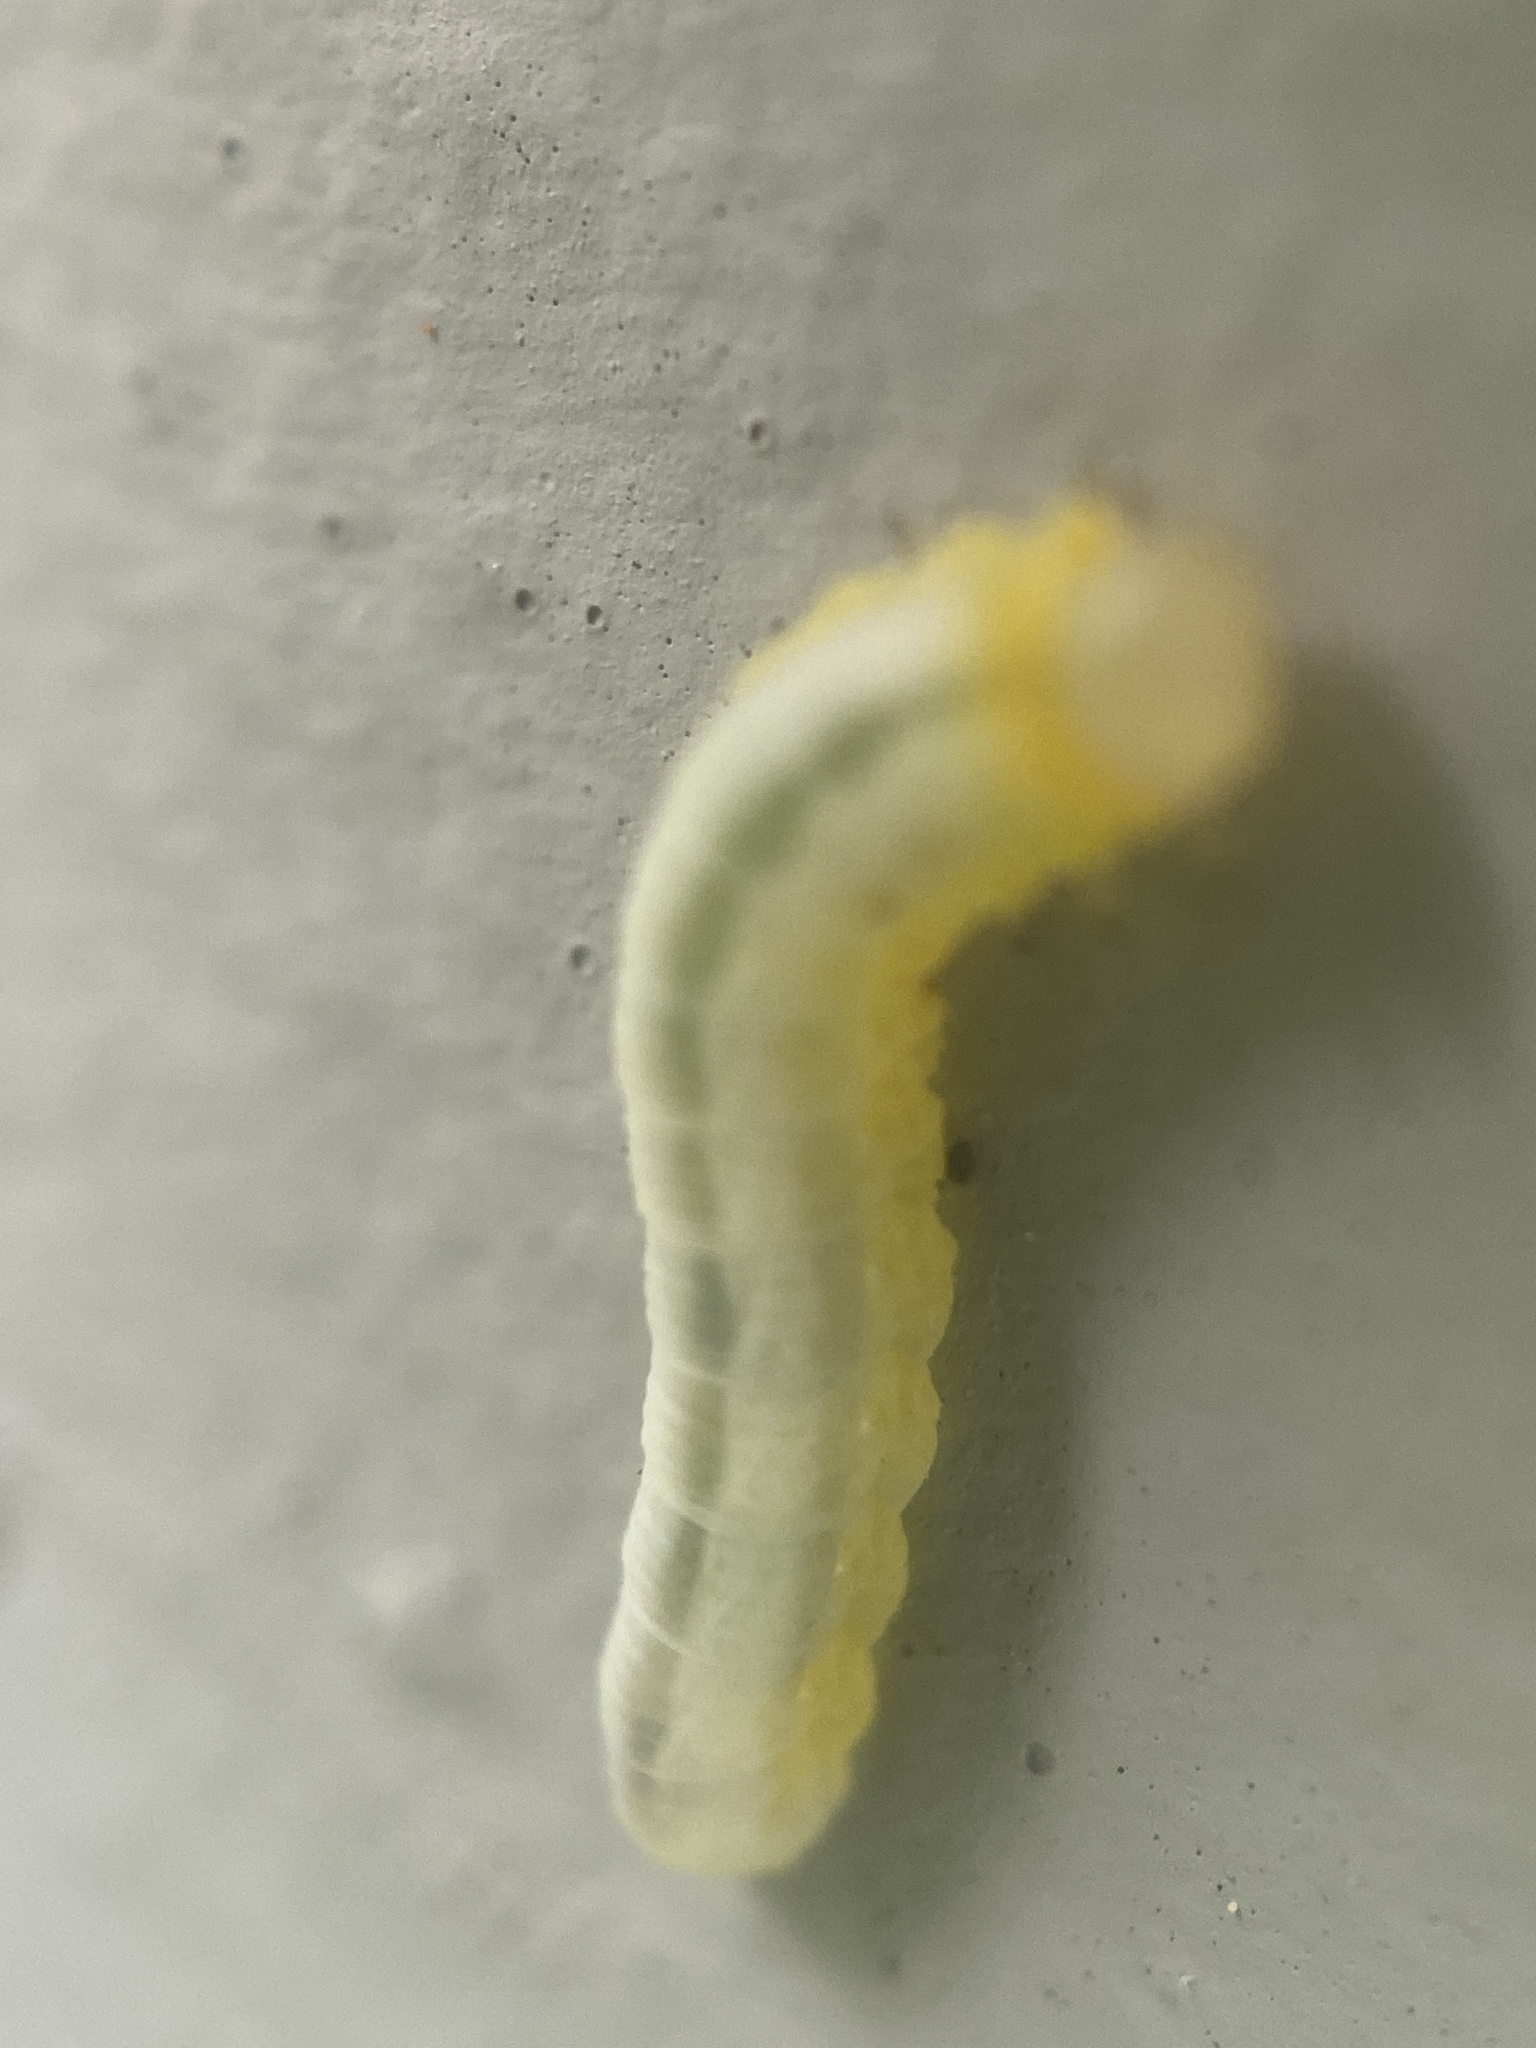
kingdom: Animalia
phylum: Arthropoda
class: Insecta
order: Hymenoptera
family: Tenthredinidae
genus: Tomostethus
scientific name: Tomostethus multicinctus
